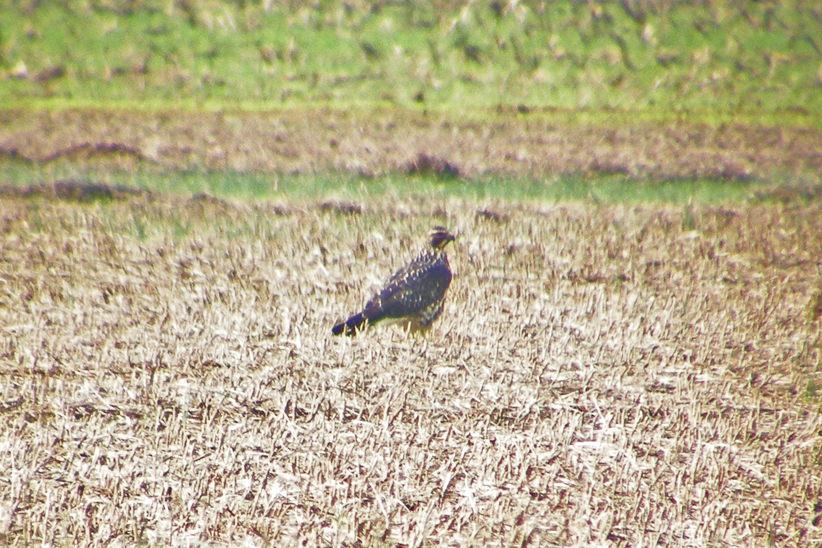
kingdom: Animalia
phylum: Chordata
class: Aves
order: Accipitriformes
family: Accipitridae
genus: Buteo
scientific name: Buteo swainsoni
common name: Swainson's hawk
